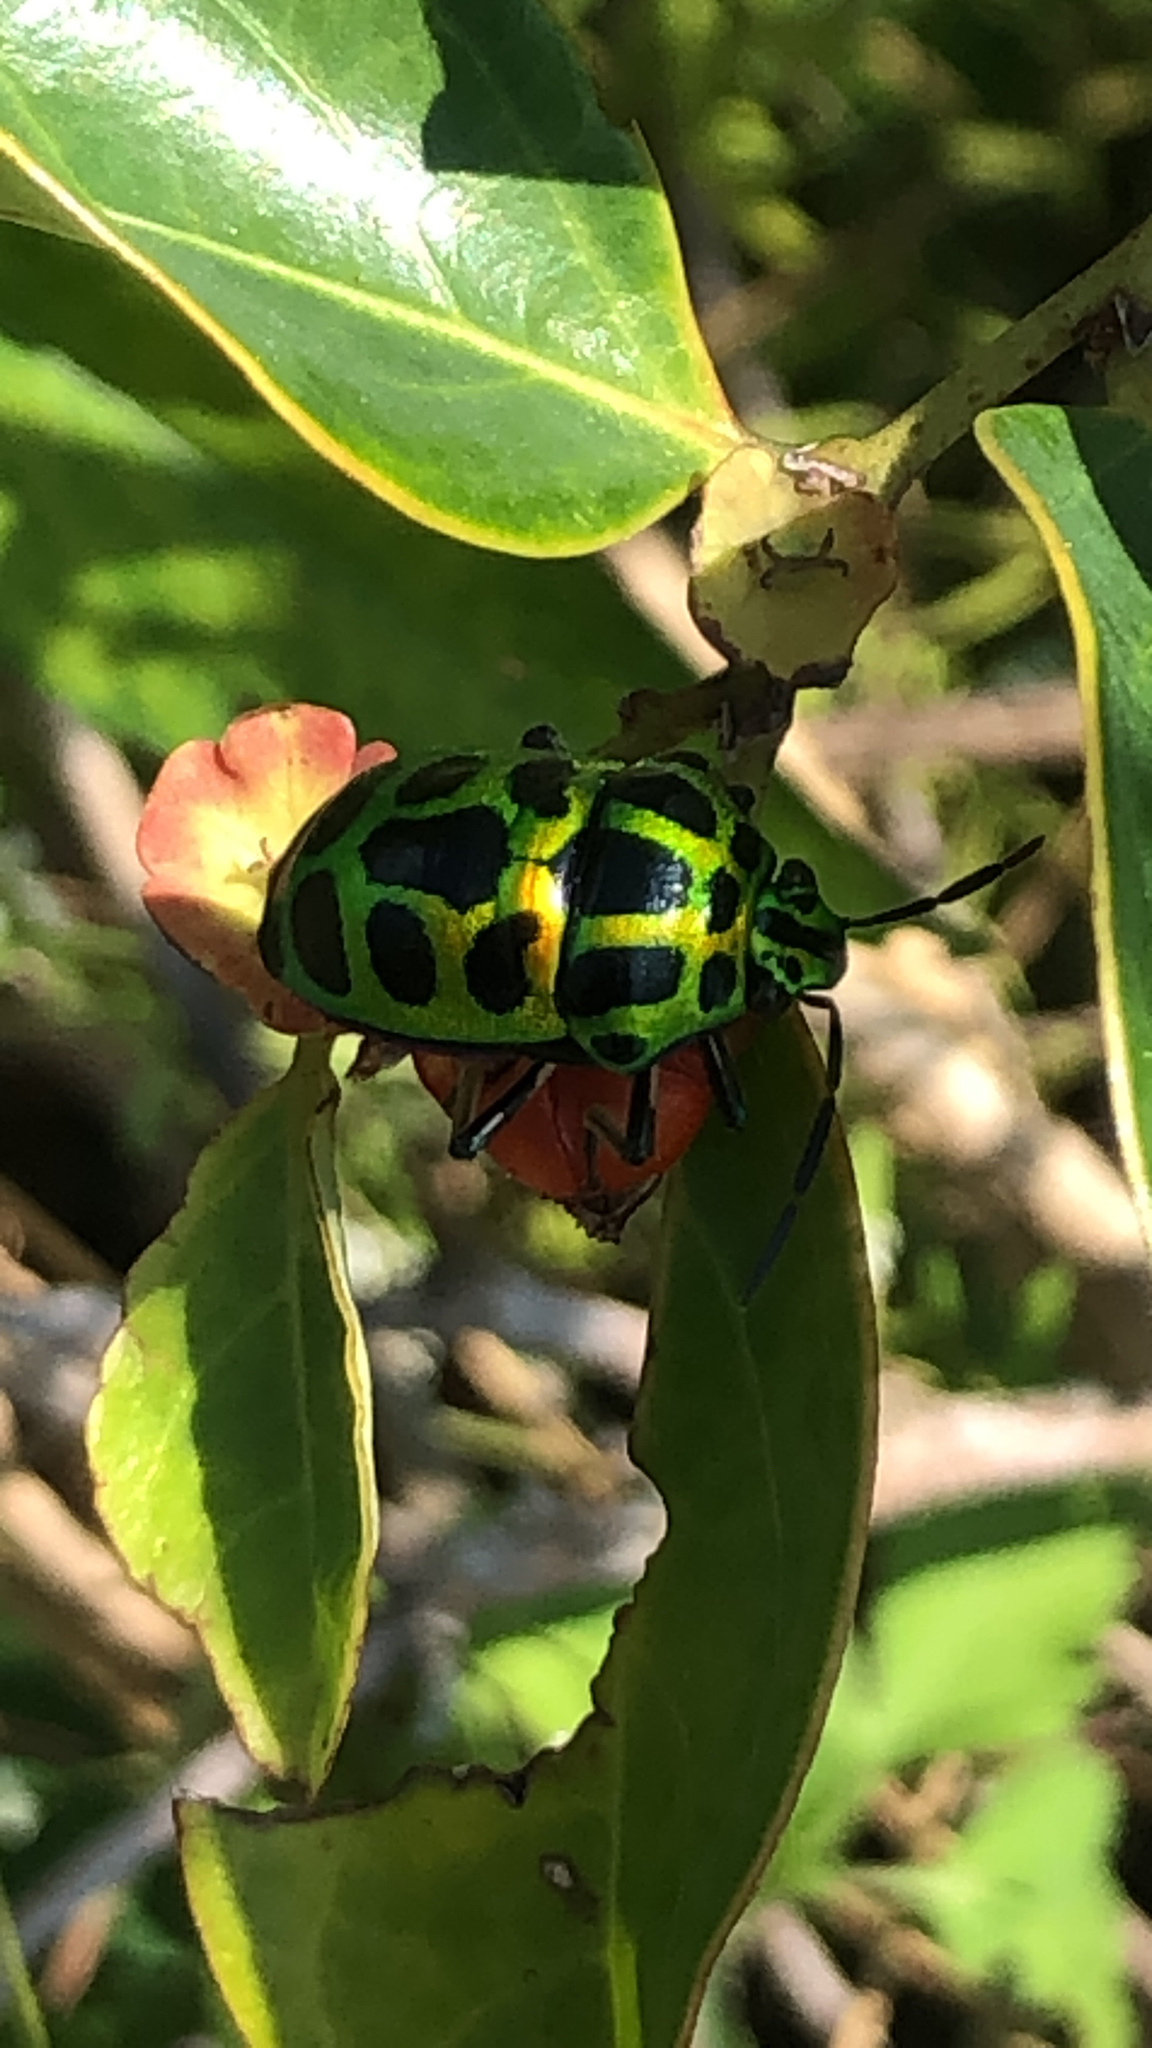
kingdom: Animalia
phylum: Arthropoda
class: Insecta
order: Hemiptera
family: Scutelleridae
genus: Chrysocoris
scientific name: Chrysocoris stollii
